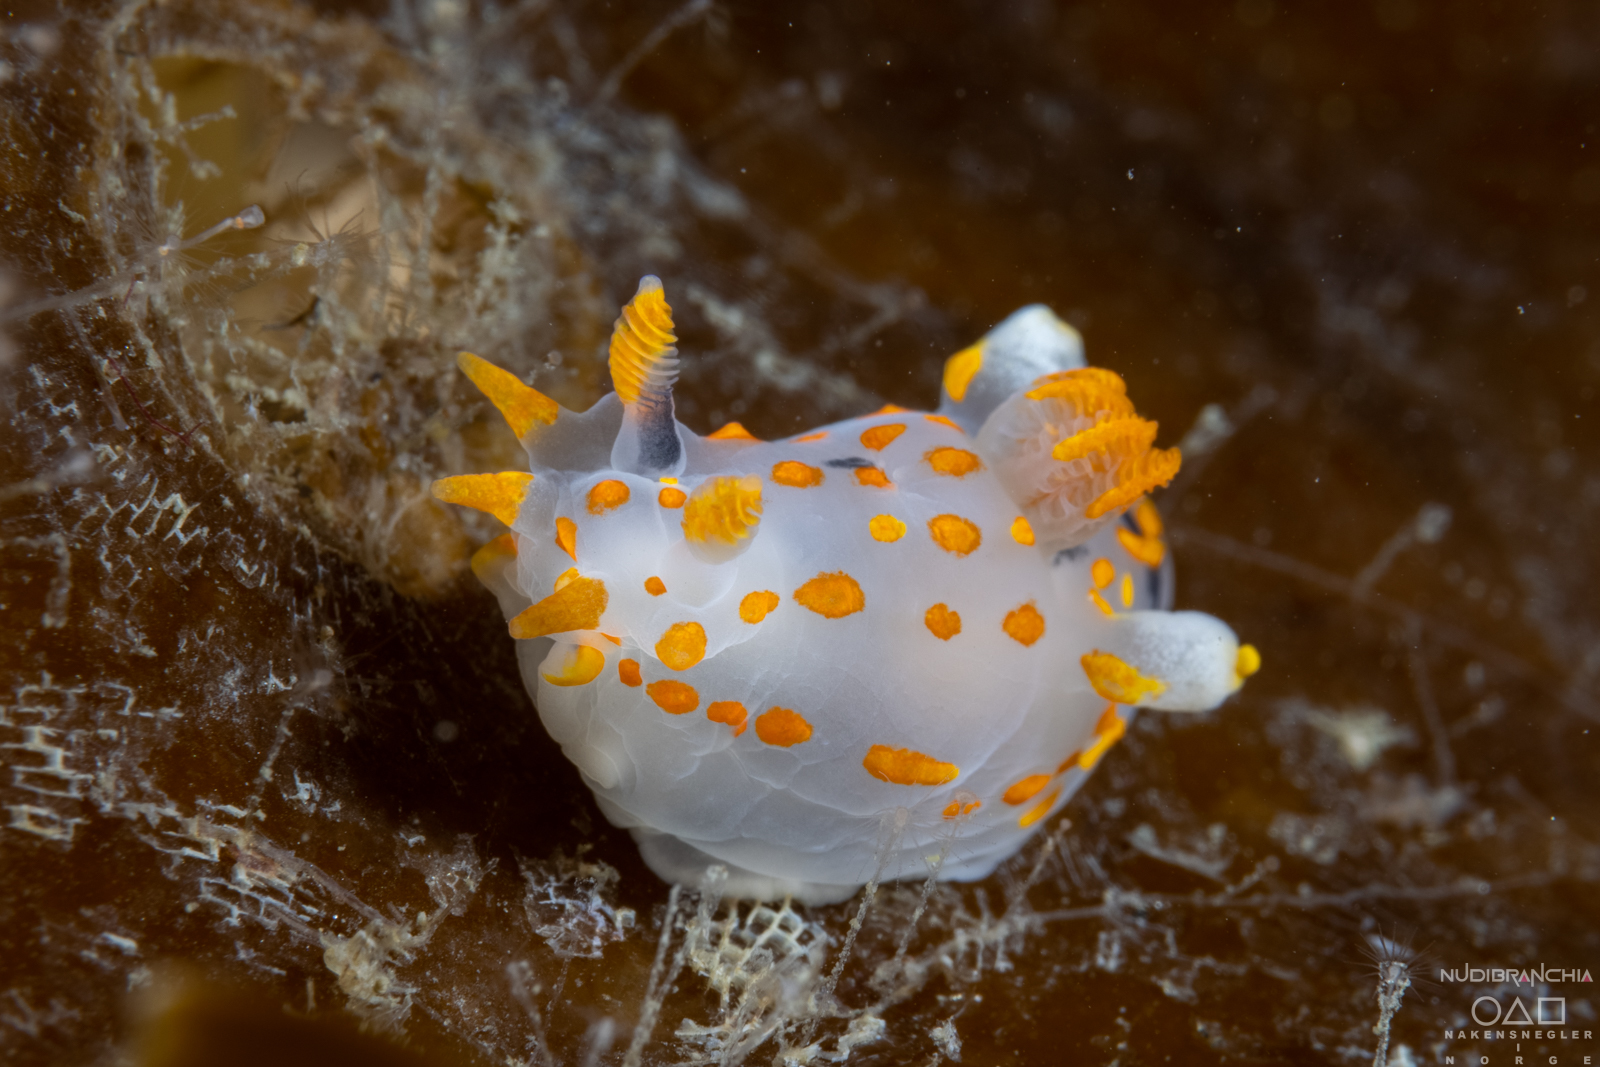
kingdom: Animalia
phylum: Mollusca
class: Gastropoda
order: Nudibranchia
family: Polyceridae
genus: Polycera
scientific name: Polycera quadrilineata
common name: Four-striped polycera
